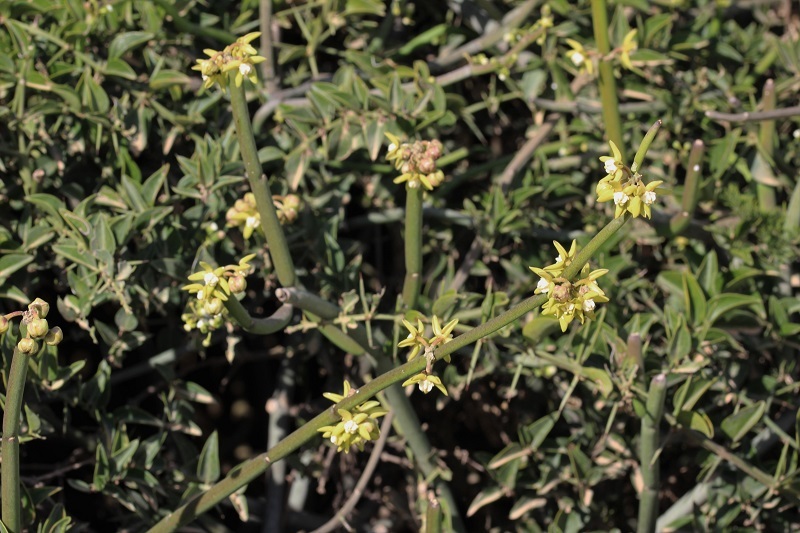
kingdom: Plantae
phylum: Tracheophyta
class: Magnoliopsida
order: Gentianales
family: Apocynaceae
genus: Cynanchum
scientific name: Cynanchum viminale
